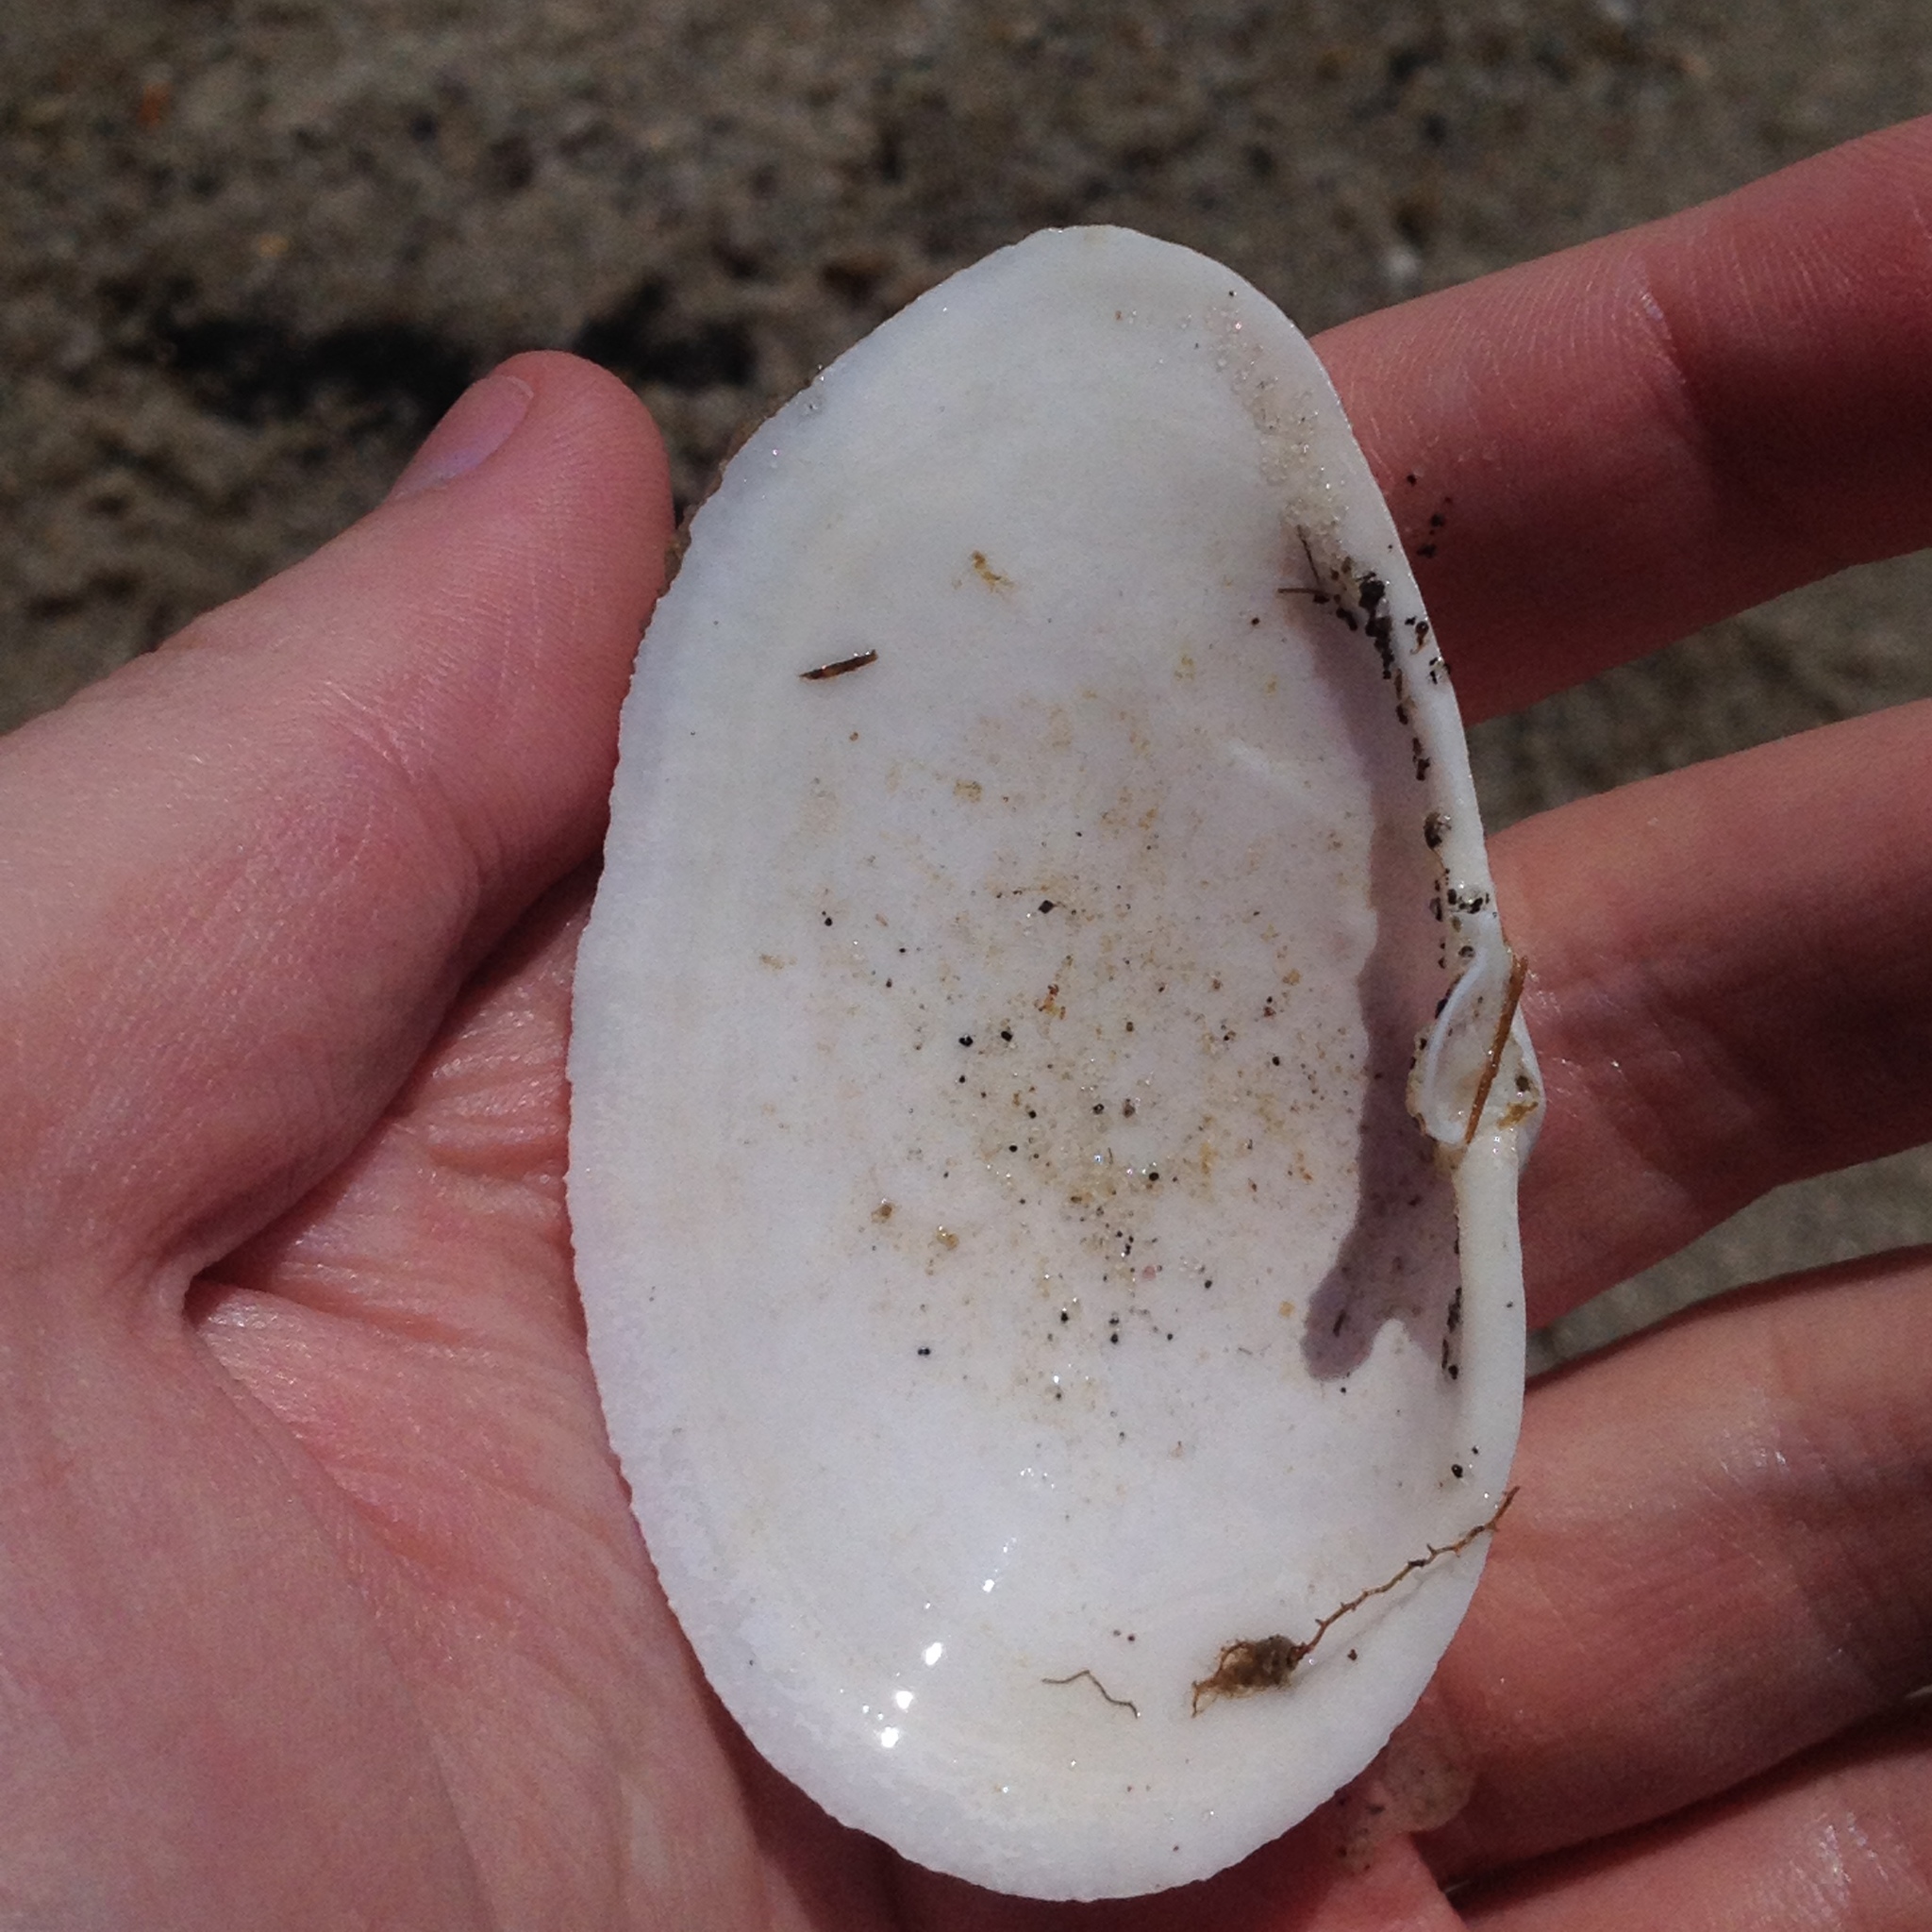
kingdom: Animalia
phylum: Mollusca
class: Bivalvia
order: Myida
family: Myidae
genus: Mya
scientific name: Mya arenaria
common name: Soft-shelled clam
